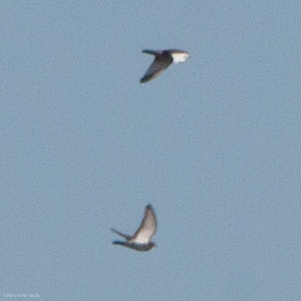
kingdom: Animalia
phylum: Chordata
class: Aves
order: Columbiformes
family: Columbidae
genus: Columba
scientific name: Columba livia
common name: Rock pigeon
